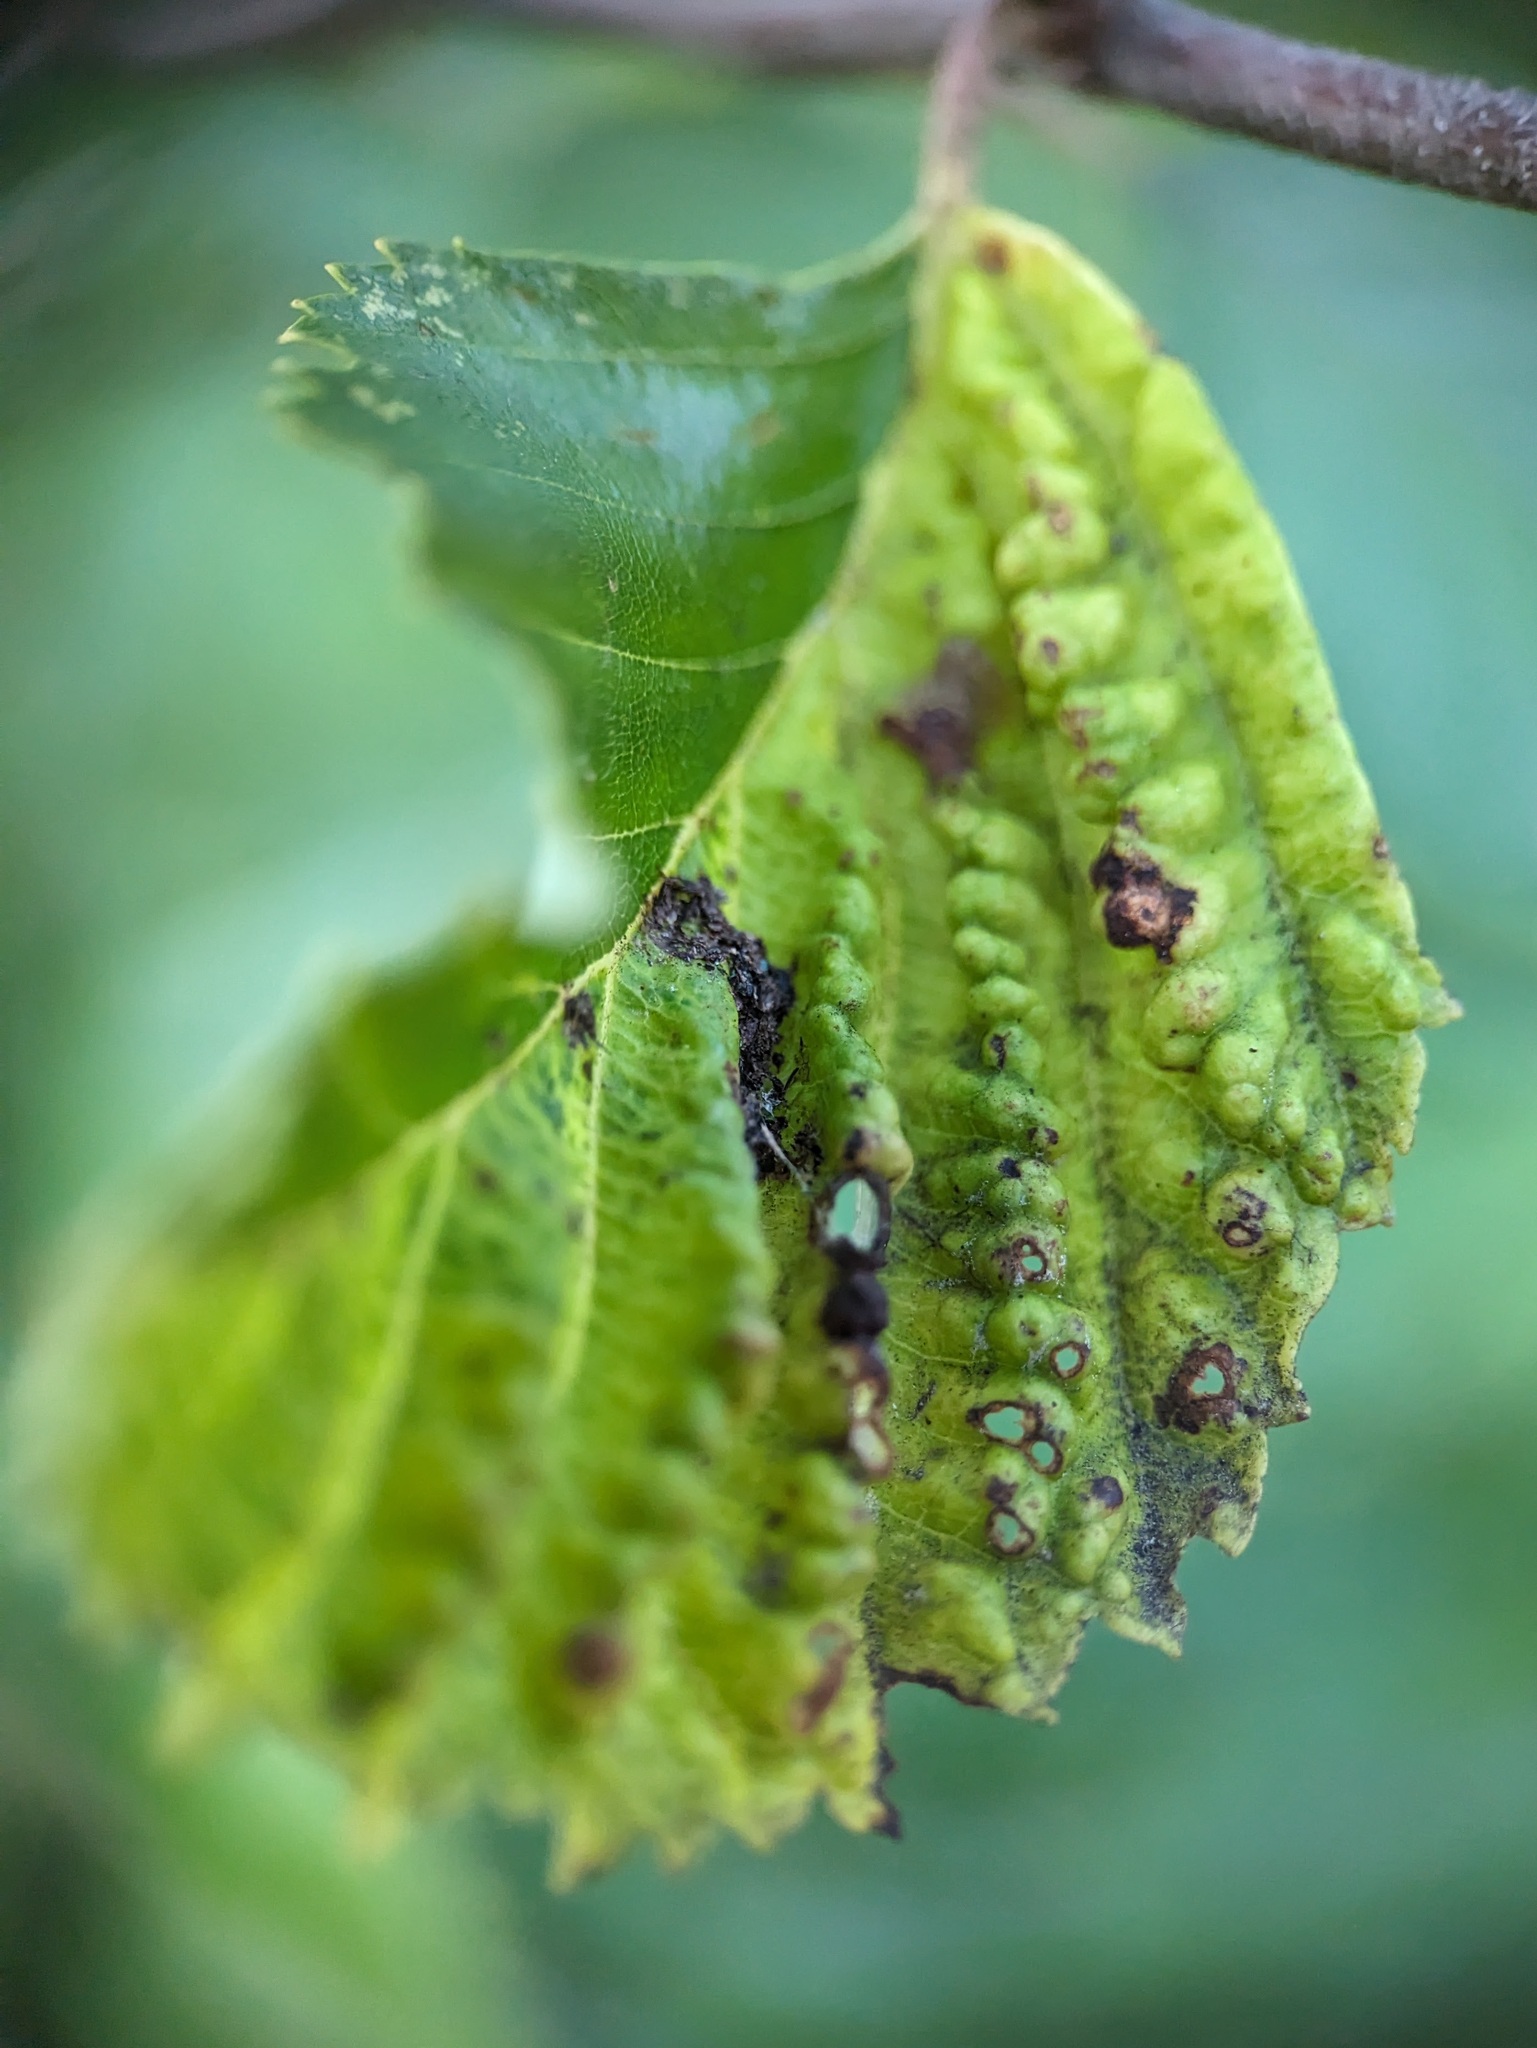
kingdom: Animalia
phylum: Arthropoda
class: Insecta
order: Hemiptera
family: Aphididae
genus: Hamamelistes
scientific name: Hamamelistes spinosus
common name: Witch hazel gall aphid
